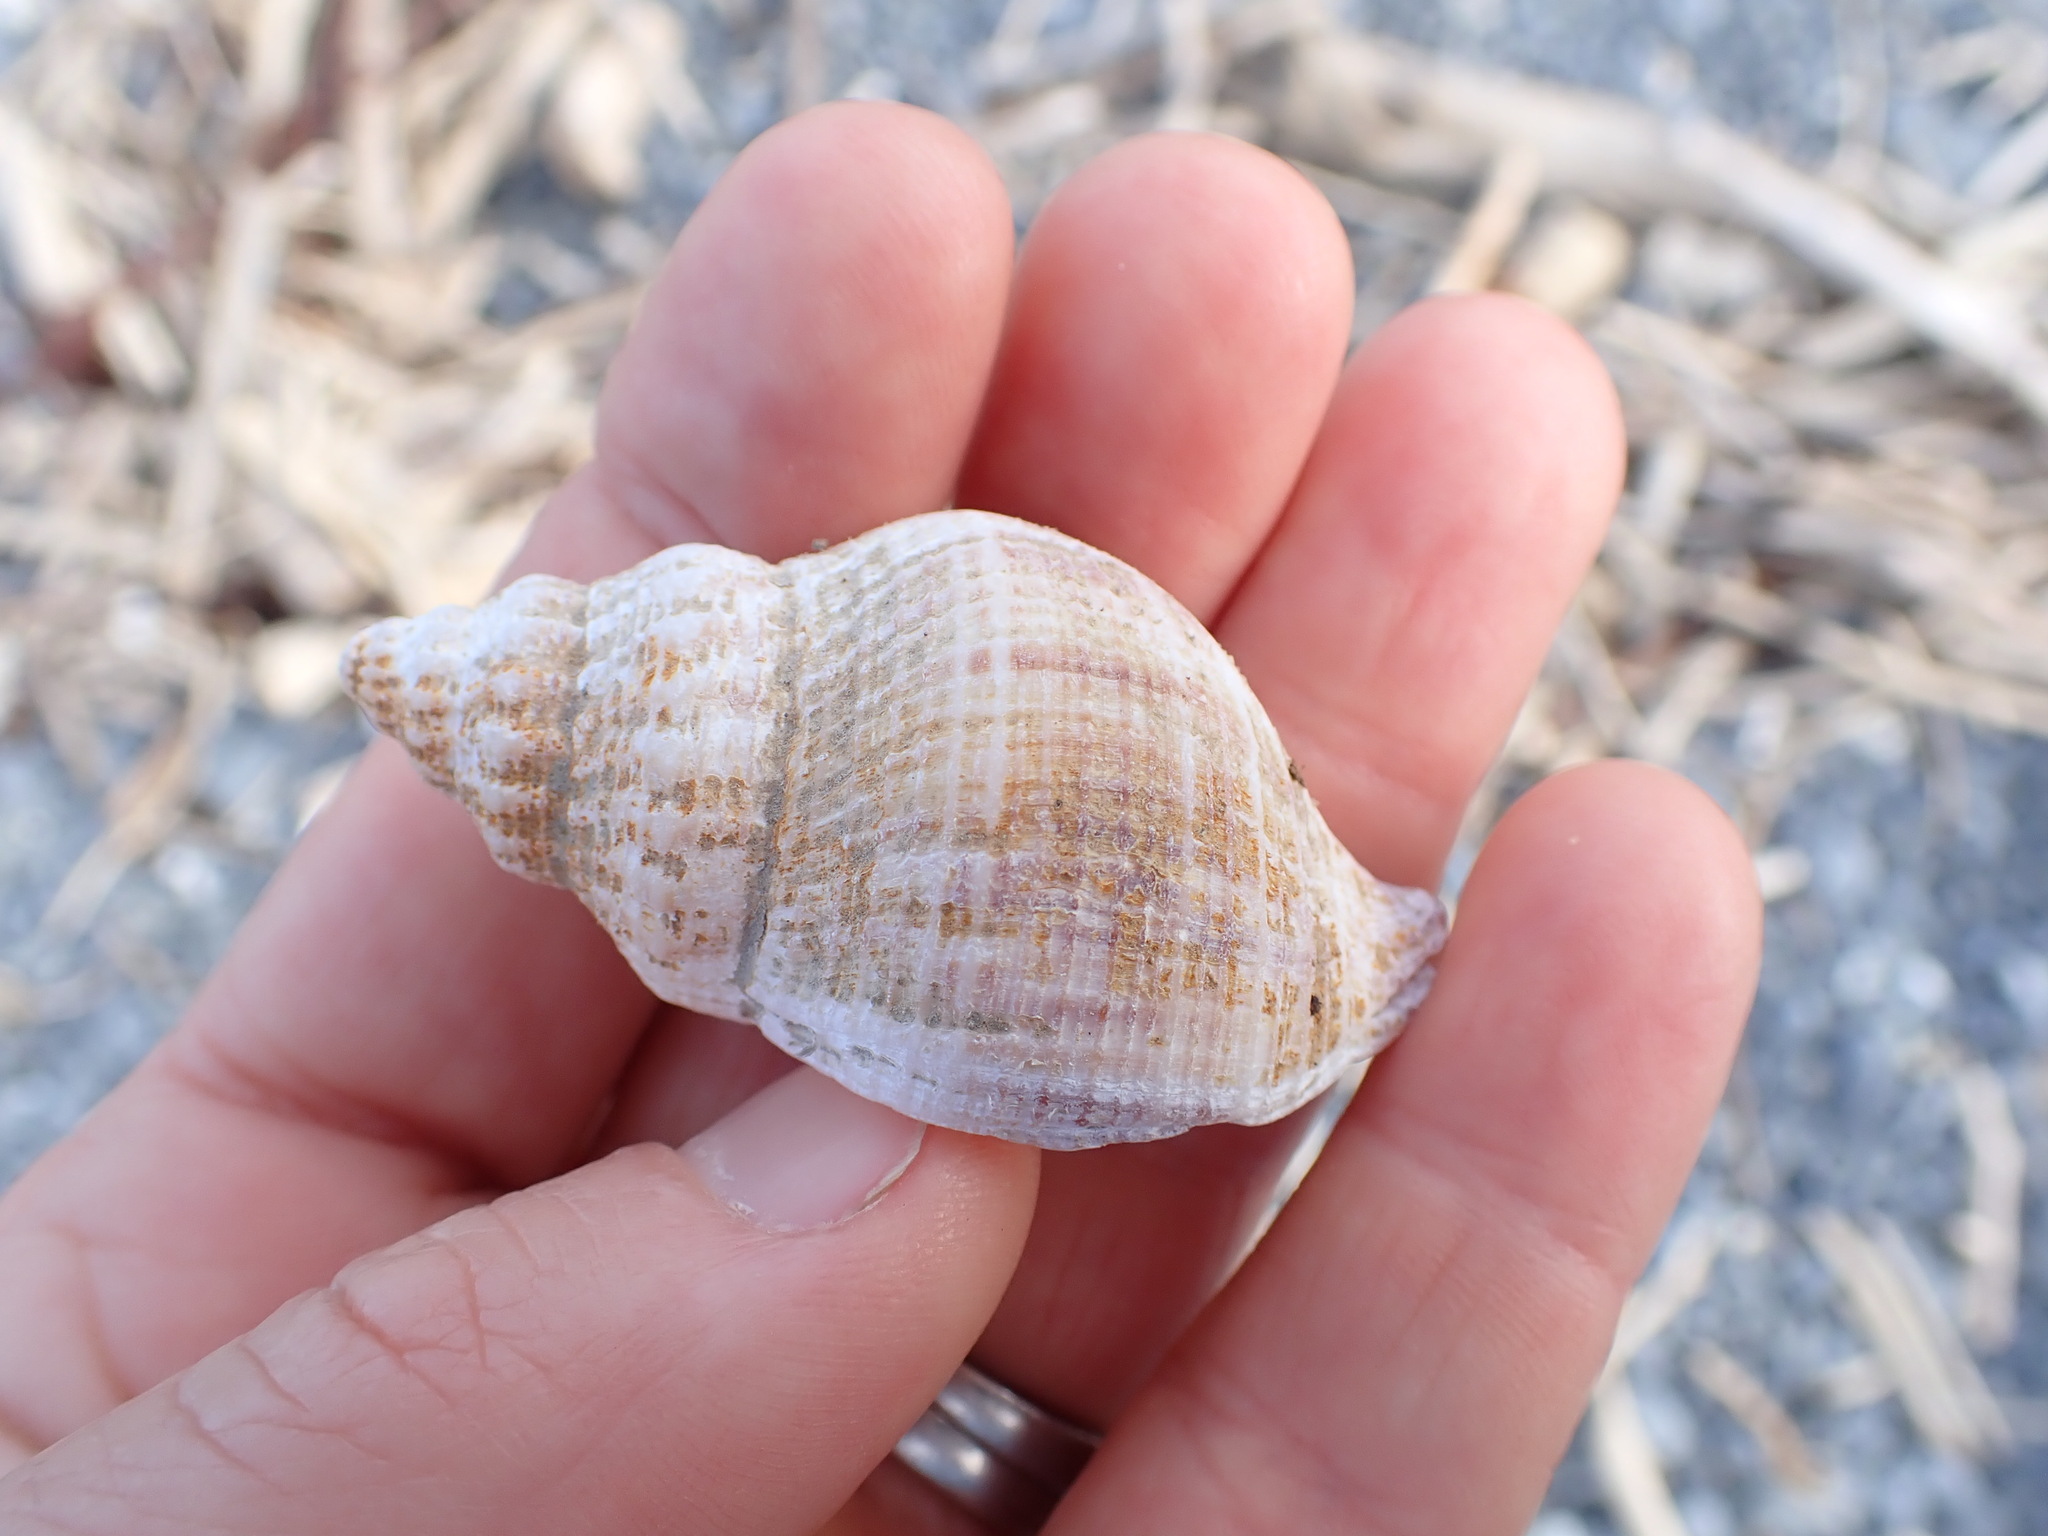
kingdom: Animalia
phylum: Mollusca
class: Gastropoda
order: Neogastropoda
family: Prosiphonidae
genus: Austrofusus
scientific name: Austrofusus glans
